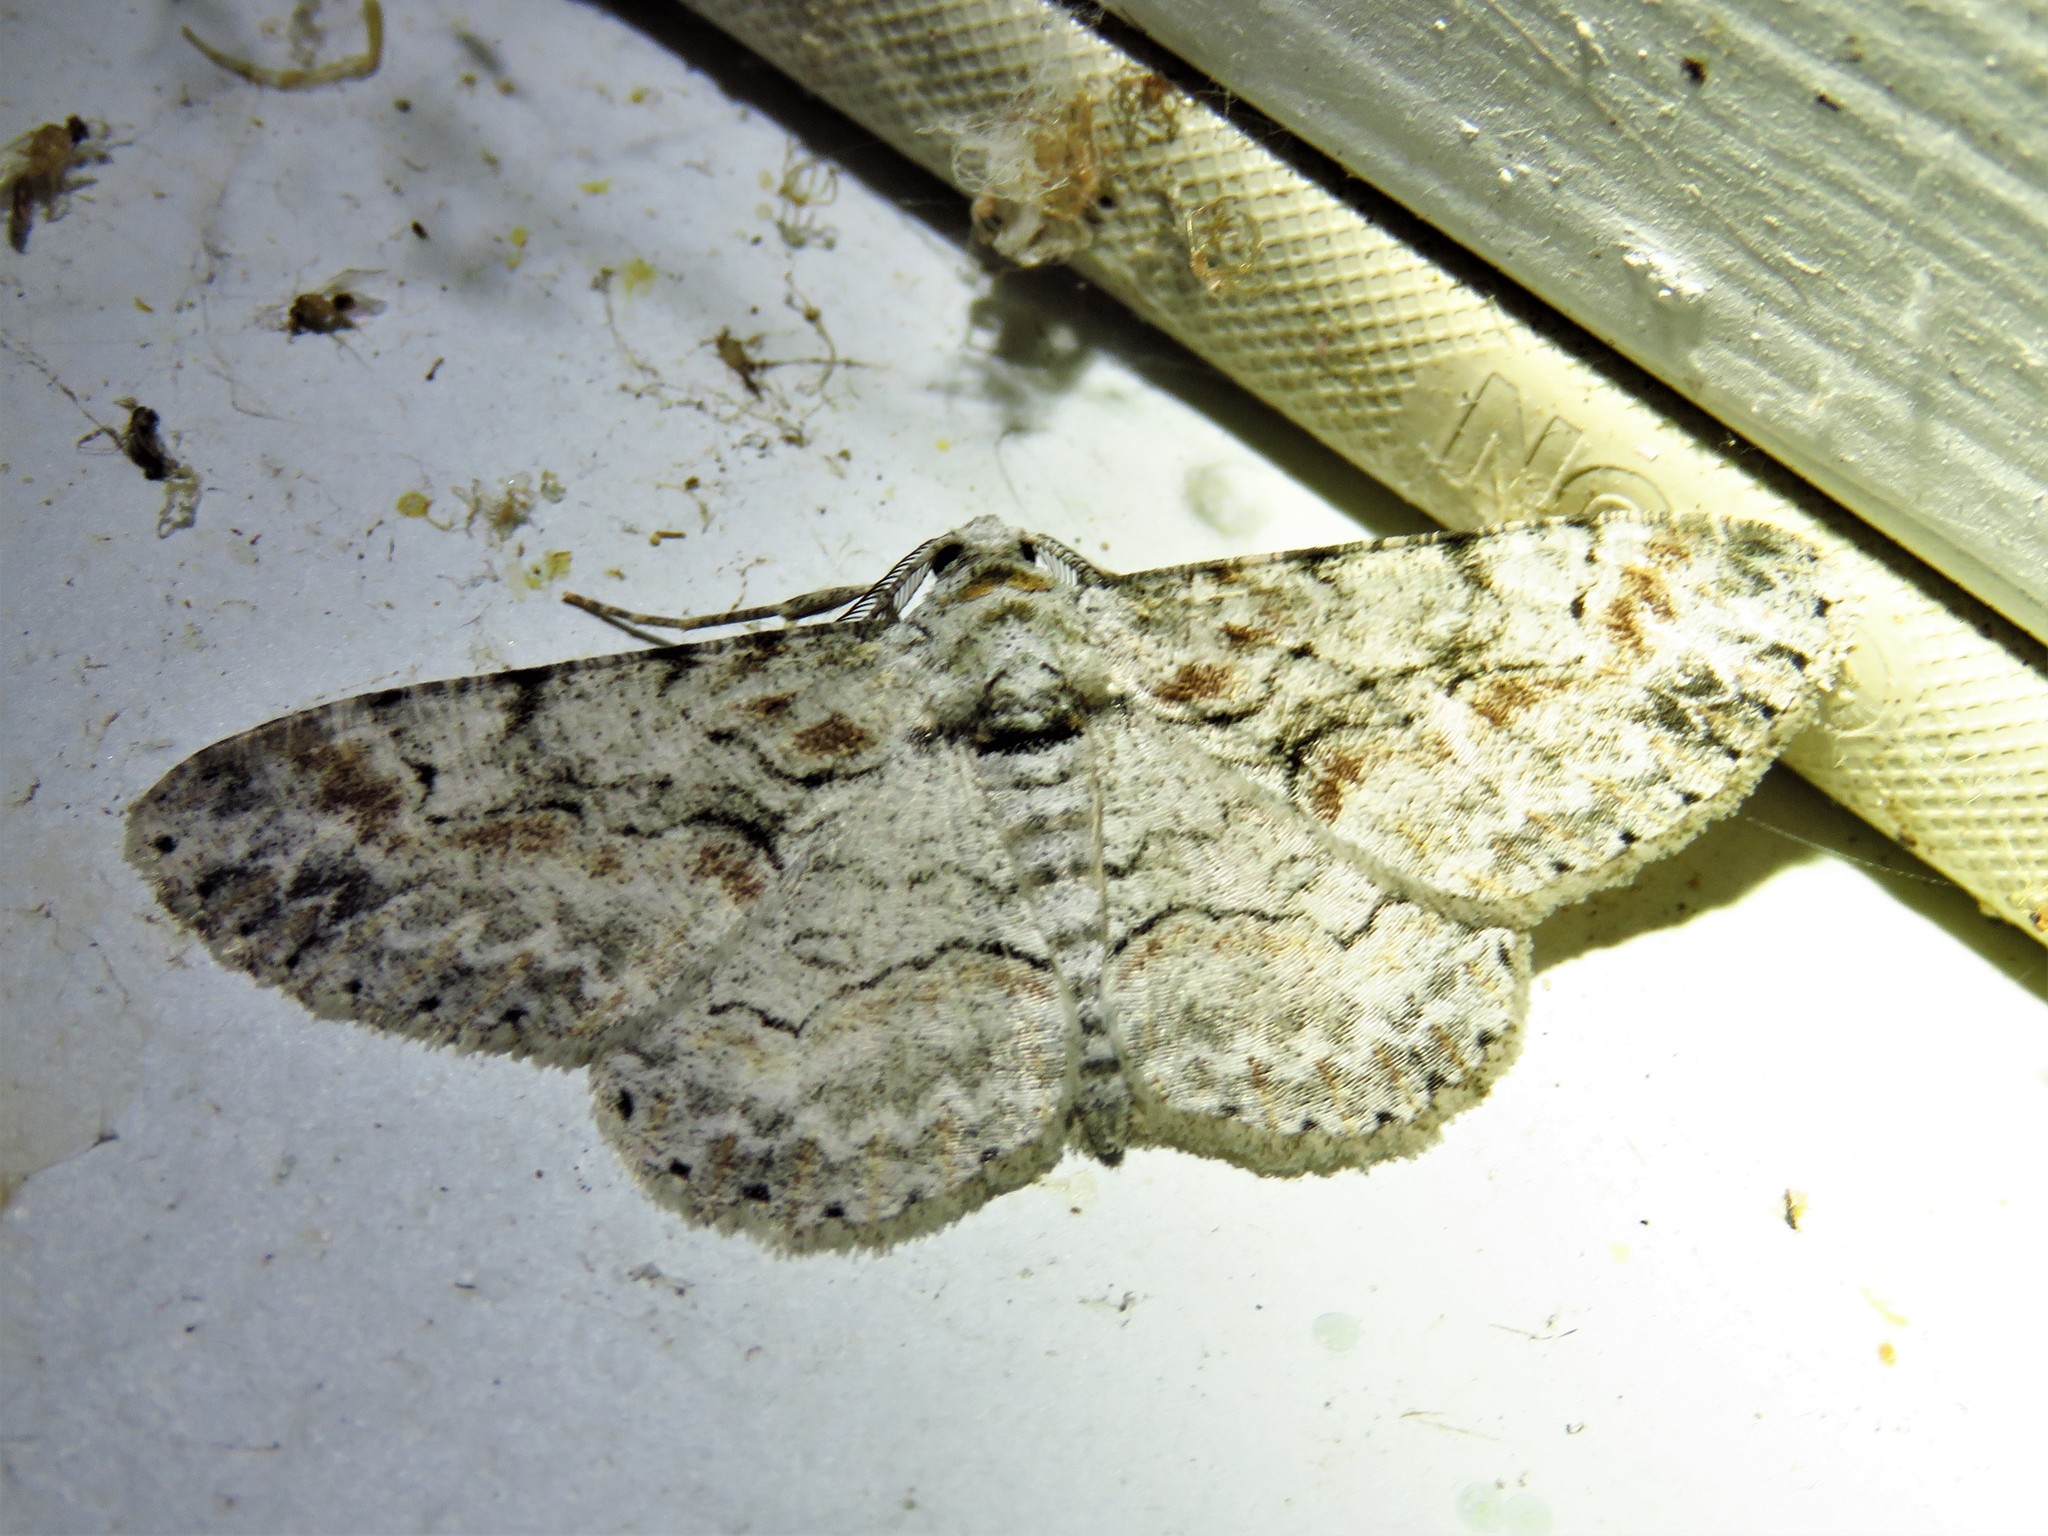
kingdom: Animalia
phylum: Arthropoda
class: Insecta
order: Lepidoptera
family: Geometridae
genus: Iridopsis
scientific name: Iridopsis defectaria
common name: Brown-shaded gray
